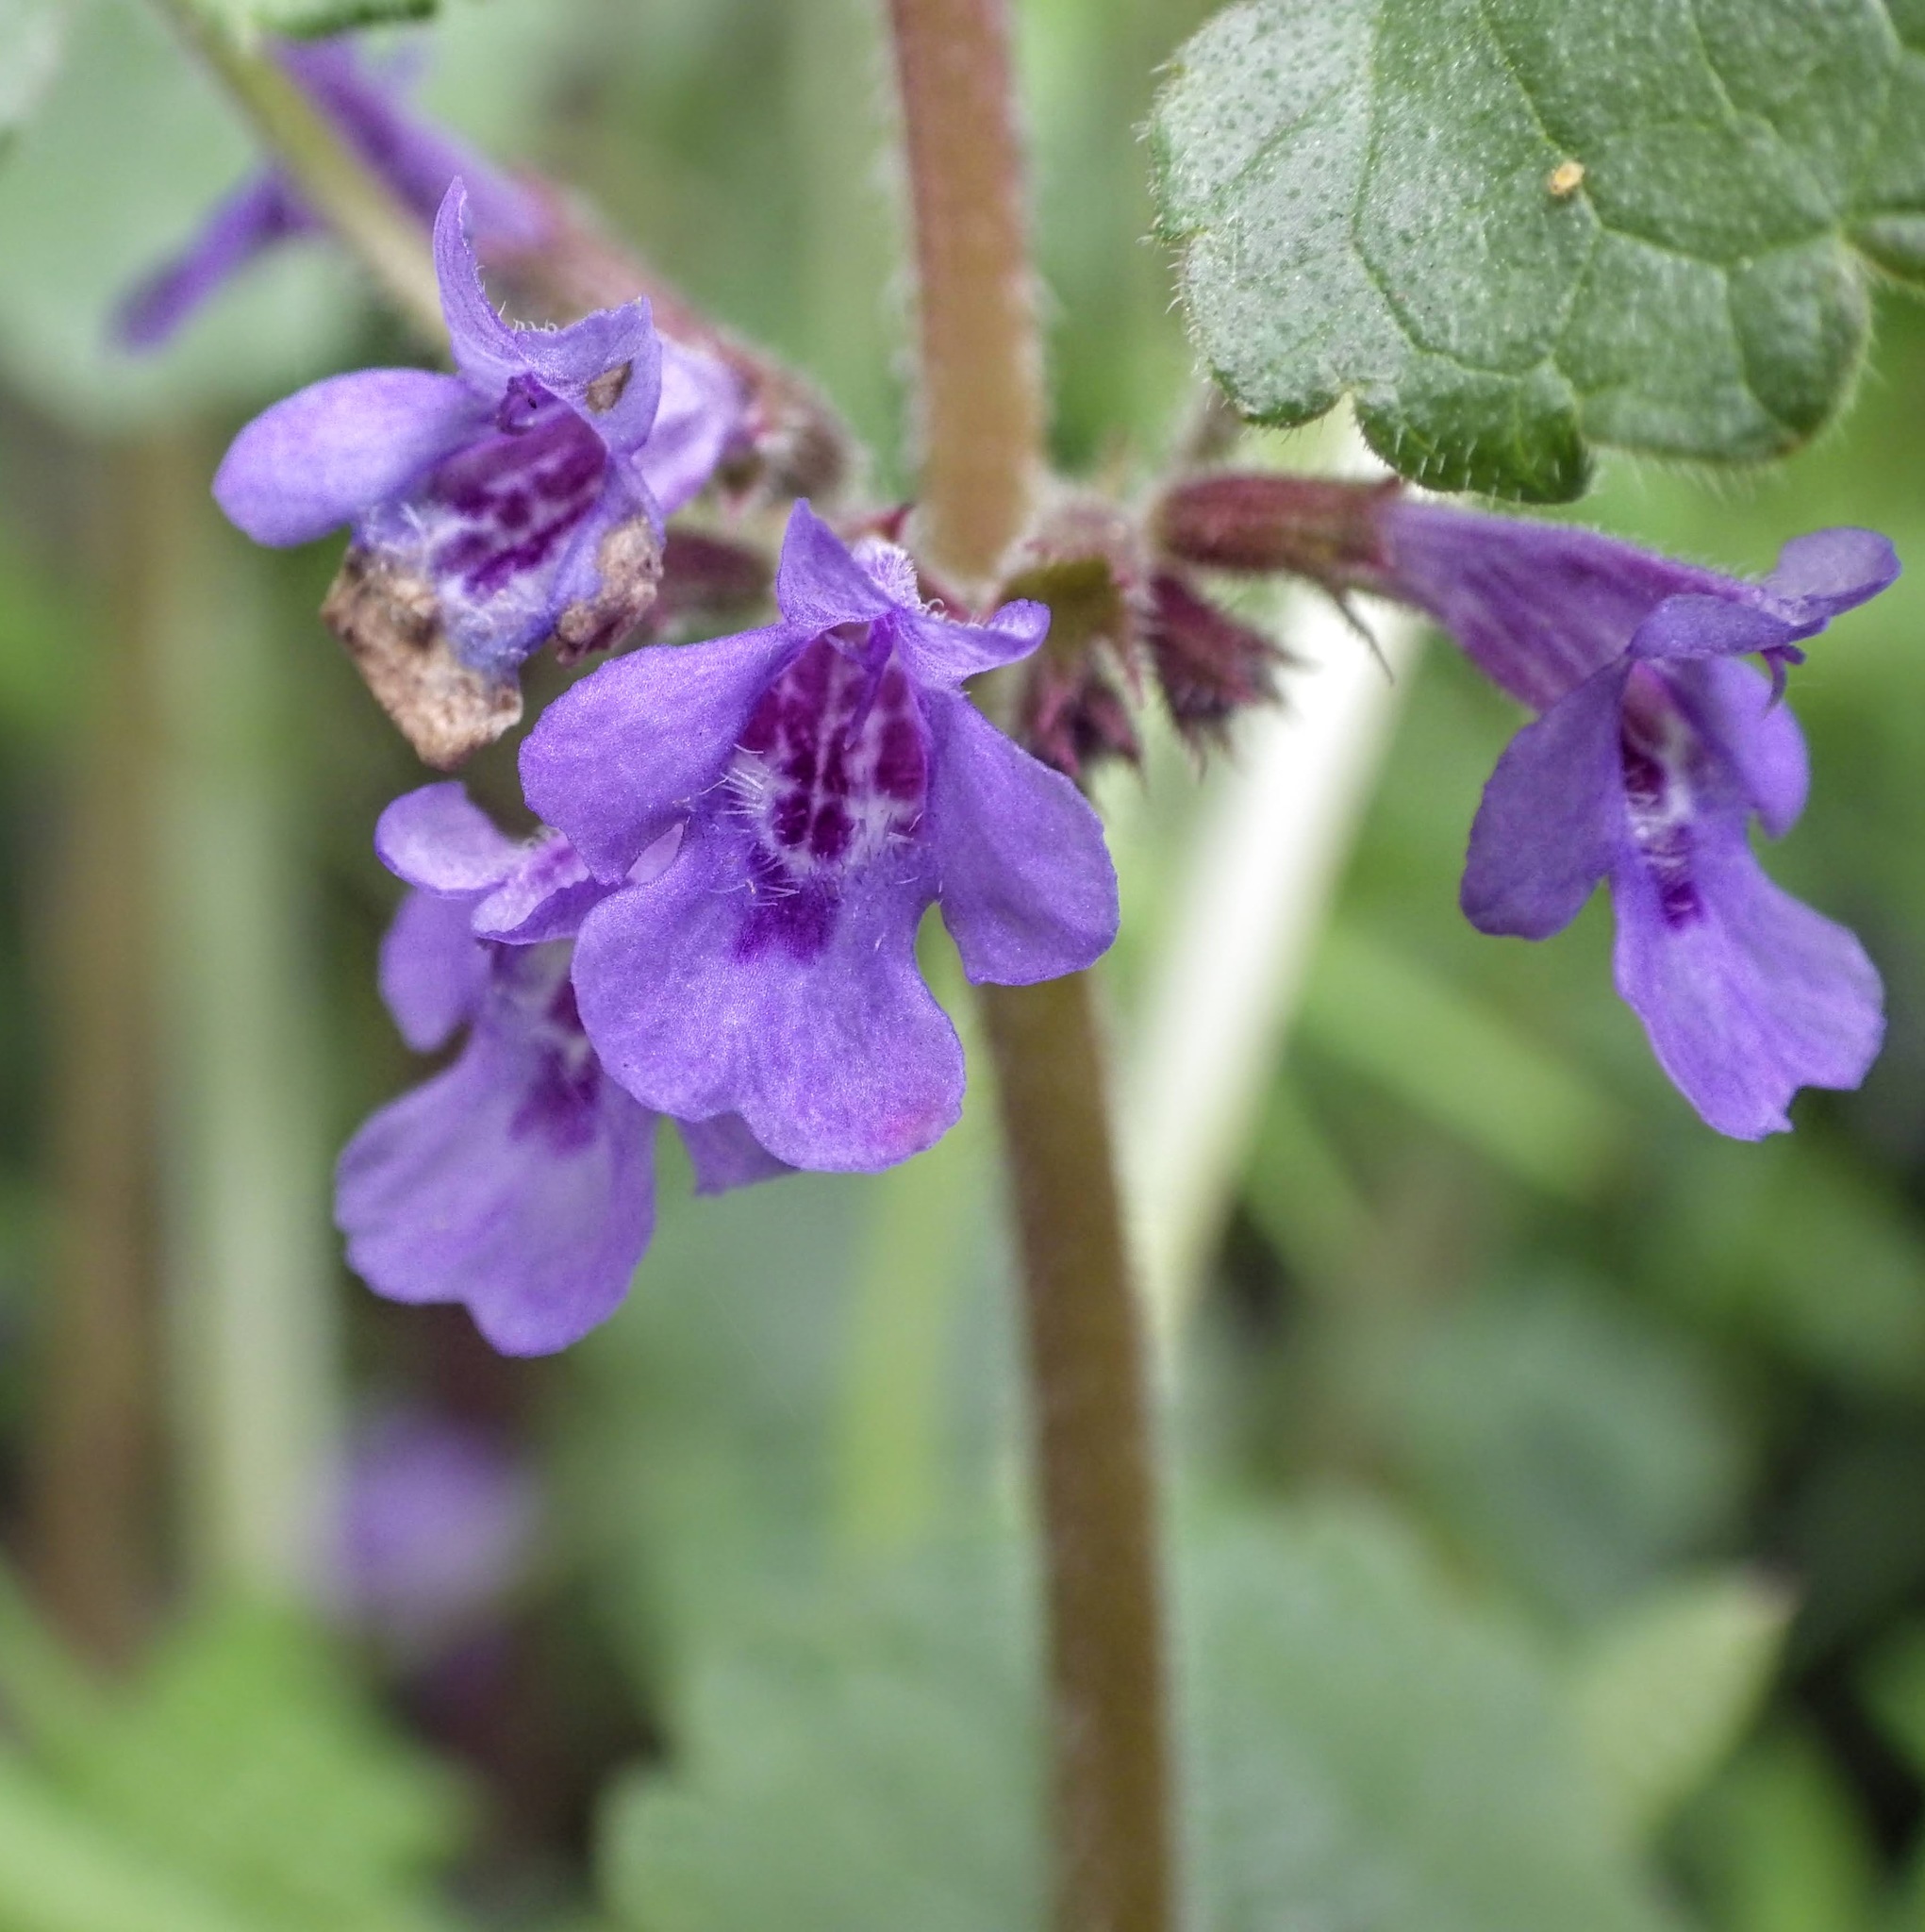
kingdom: Plantae
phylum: Tracheophyta
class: Magnoliopsida
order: Lamiales
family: Lamiaceae
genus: Glechoma
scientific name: Glechoma hederacea
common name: Ground ivy
